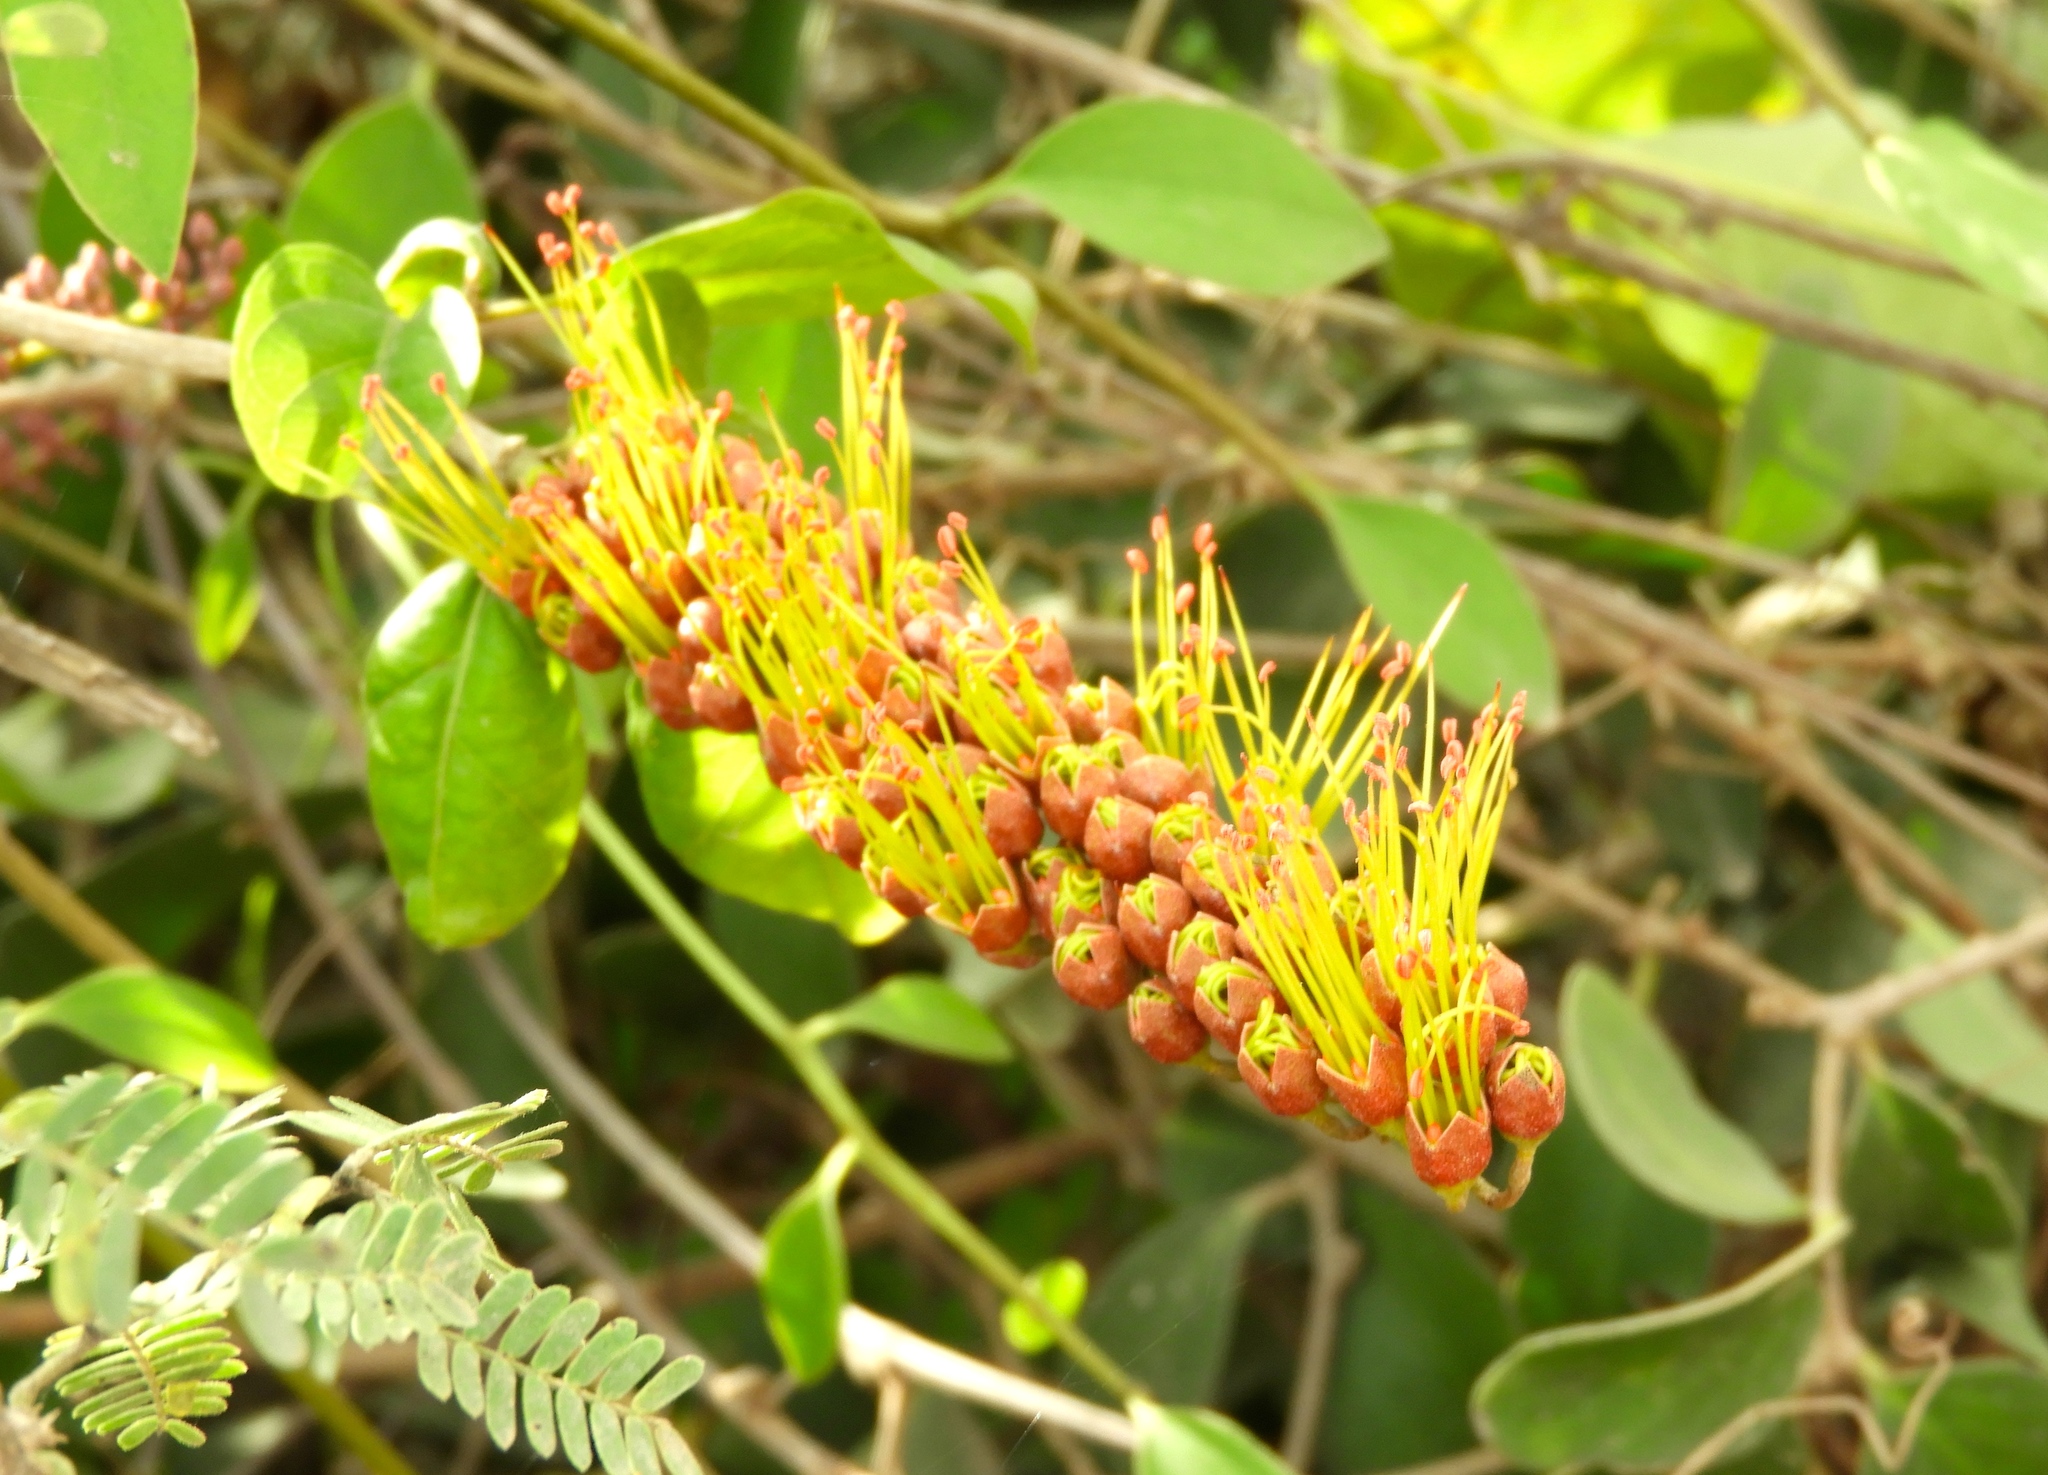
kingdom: Plantae
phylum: Tracheophyta
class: Magnoliopsida
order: Myrtales
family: Combretaceae
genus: Combretum
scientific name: Combretum farinosum
